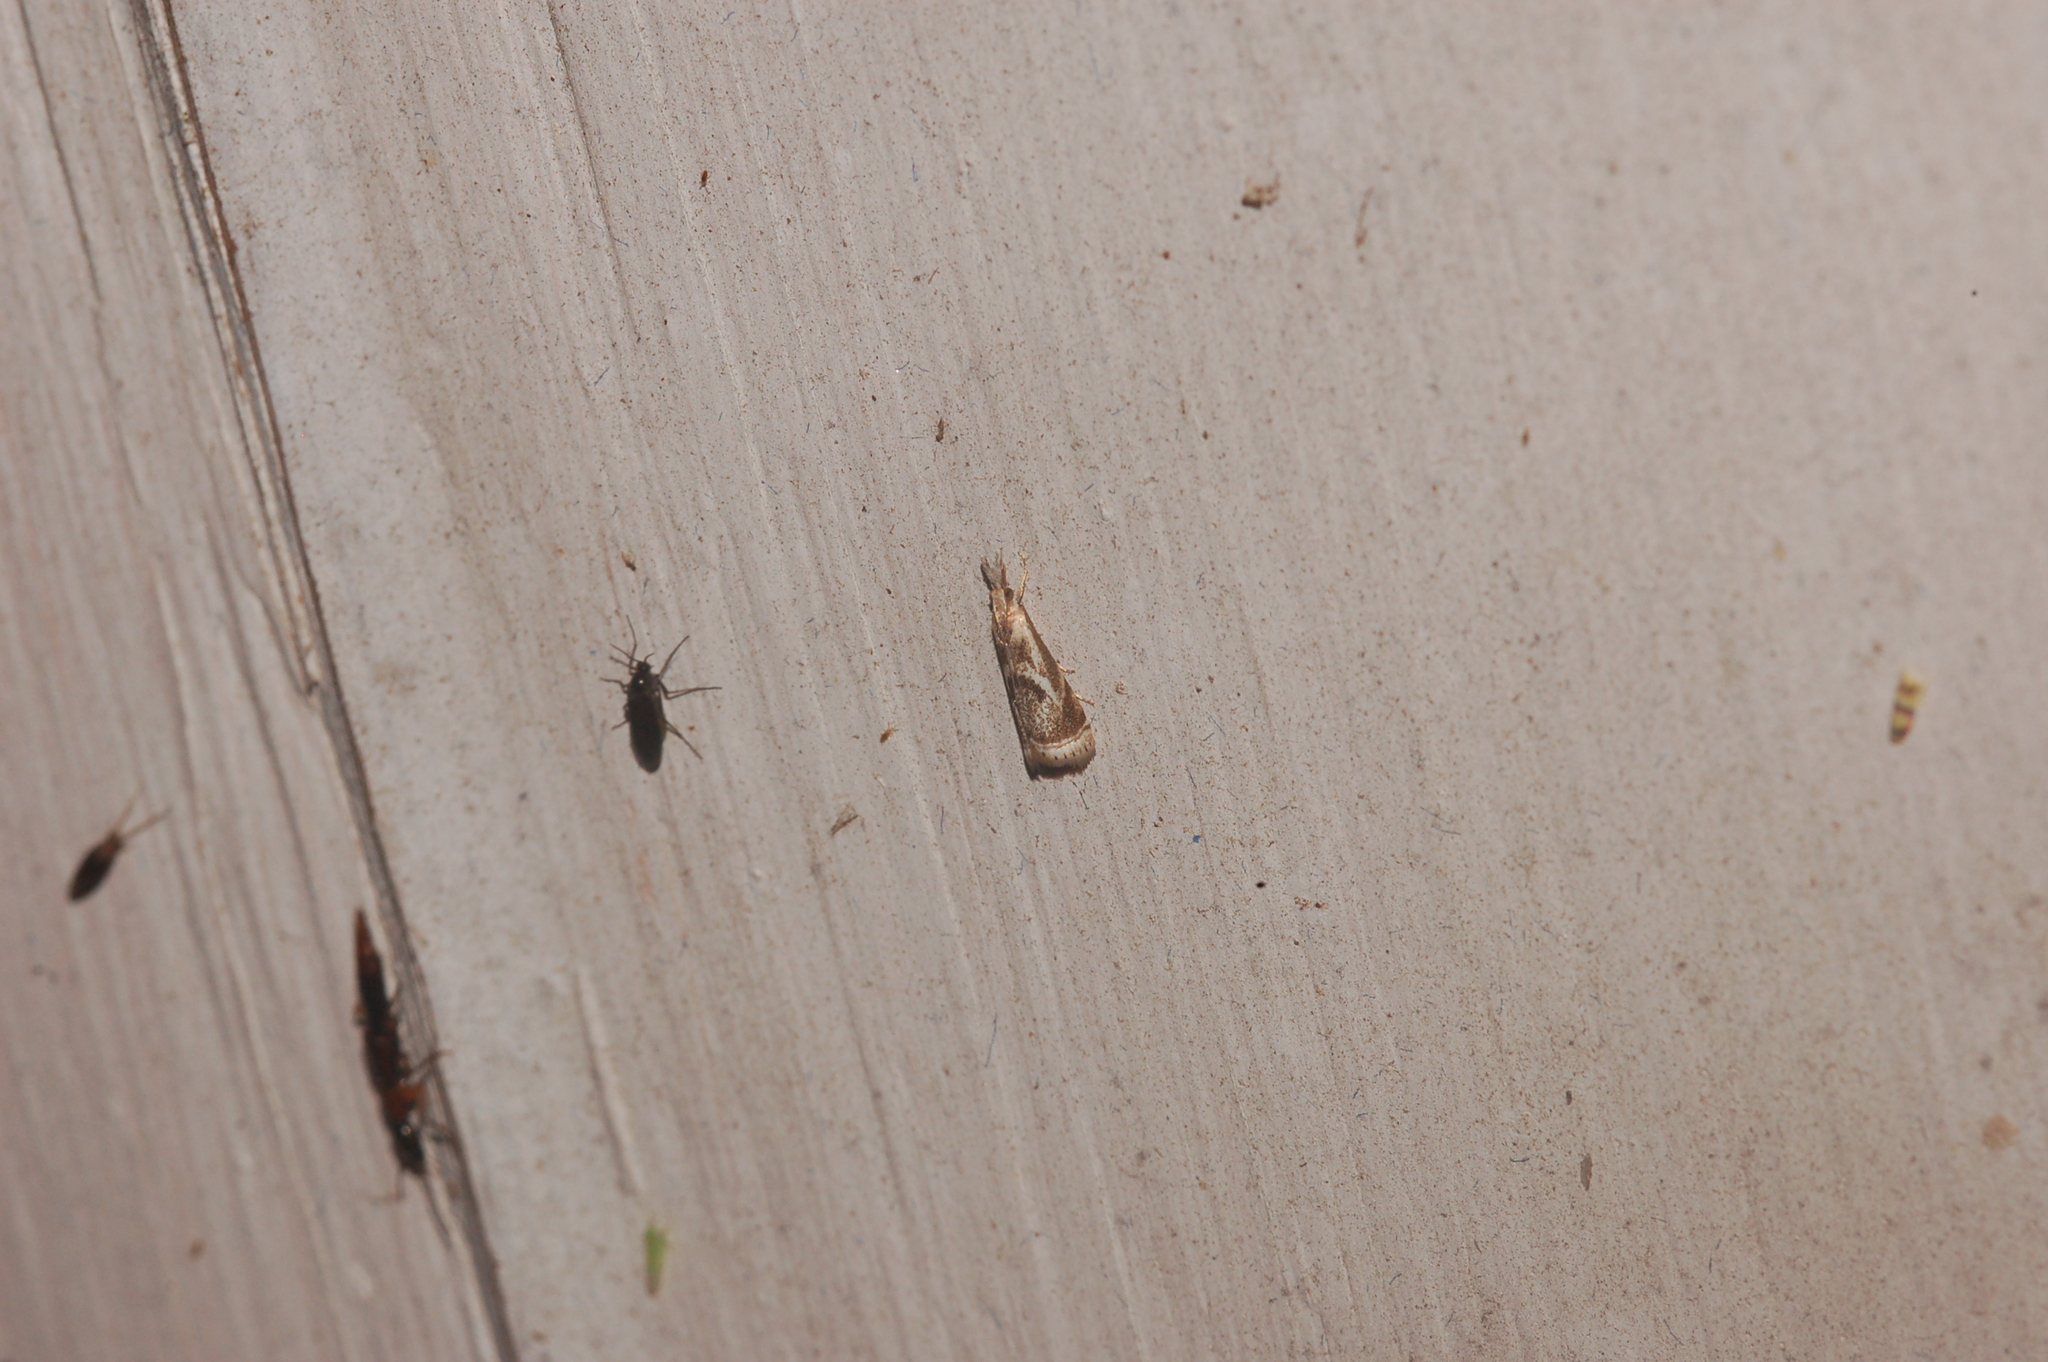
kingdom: Animalia
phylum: Arthropoda
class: Insecta
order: Lepidoptera
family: Crambidae
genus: Microcrambus
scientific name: Microcrambus elegans
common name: Elegant grass-veneer
